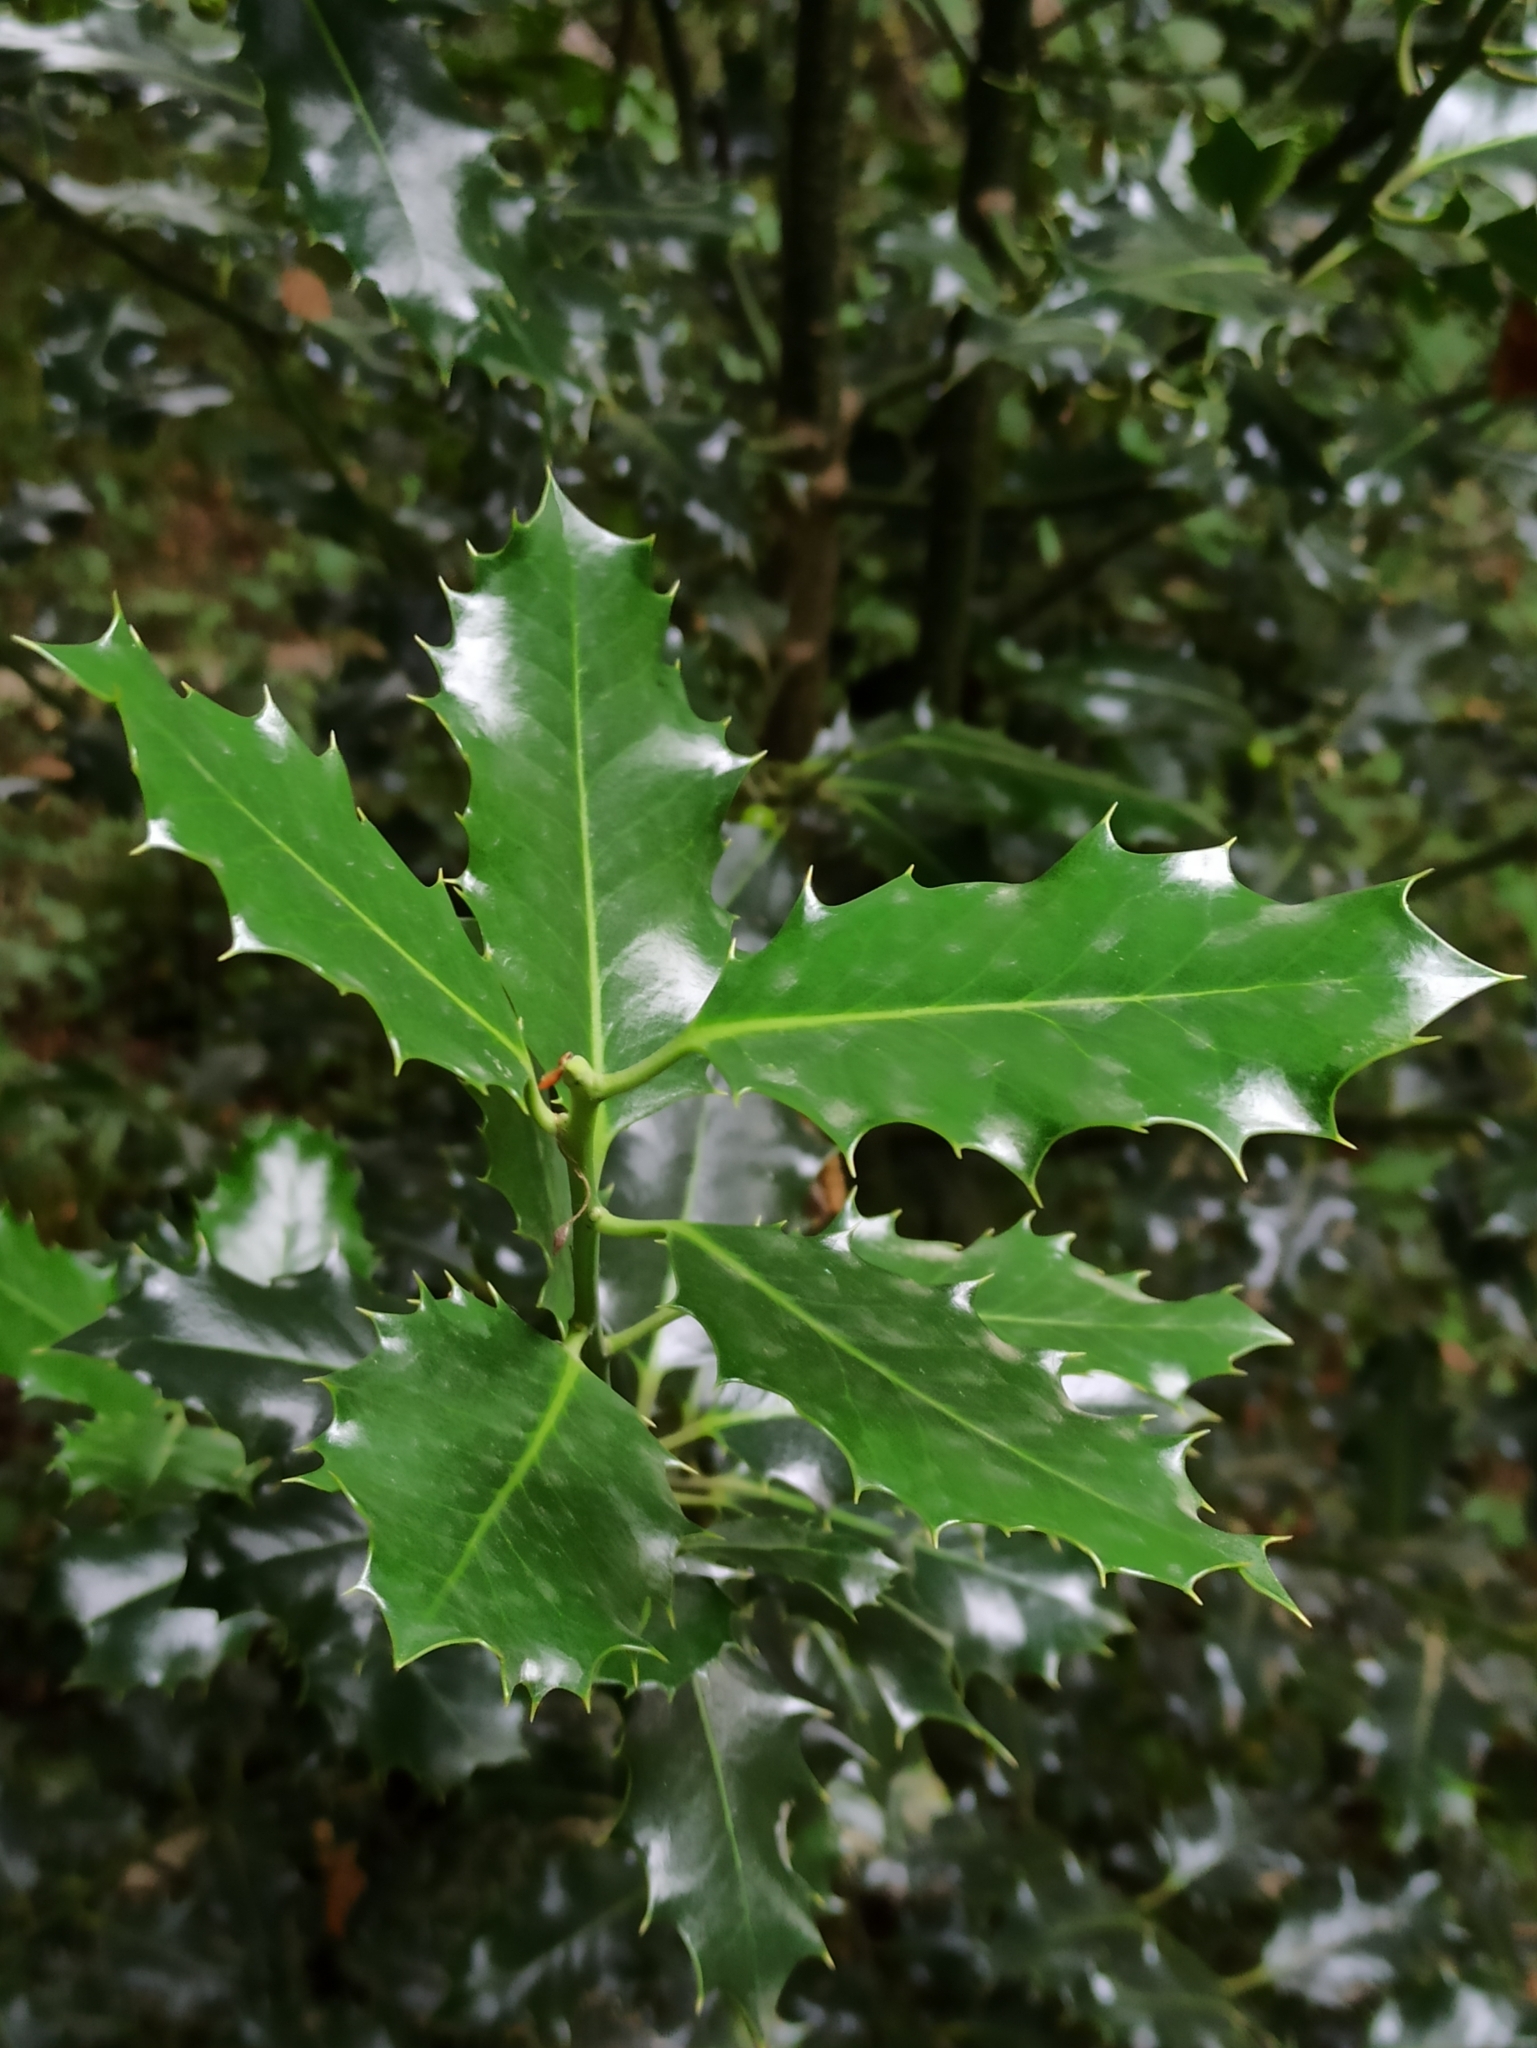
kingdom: Plantae
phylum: Tracheophyta
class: Magnoliopsida
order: Aquifoliales
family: Aquifoliaceae
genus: Ilex
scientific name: Ilex aquifolium
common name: English holly
